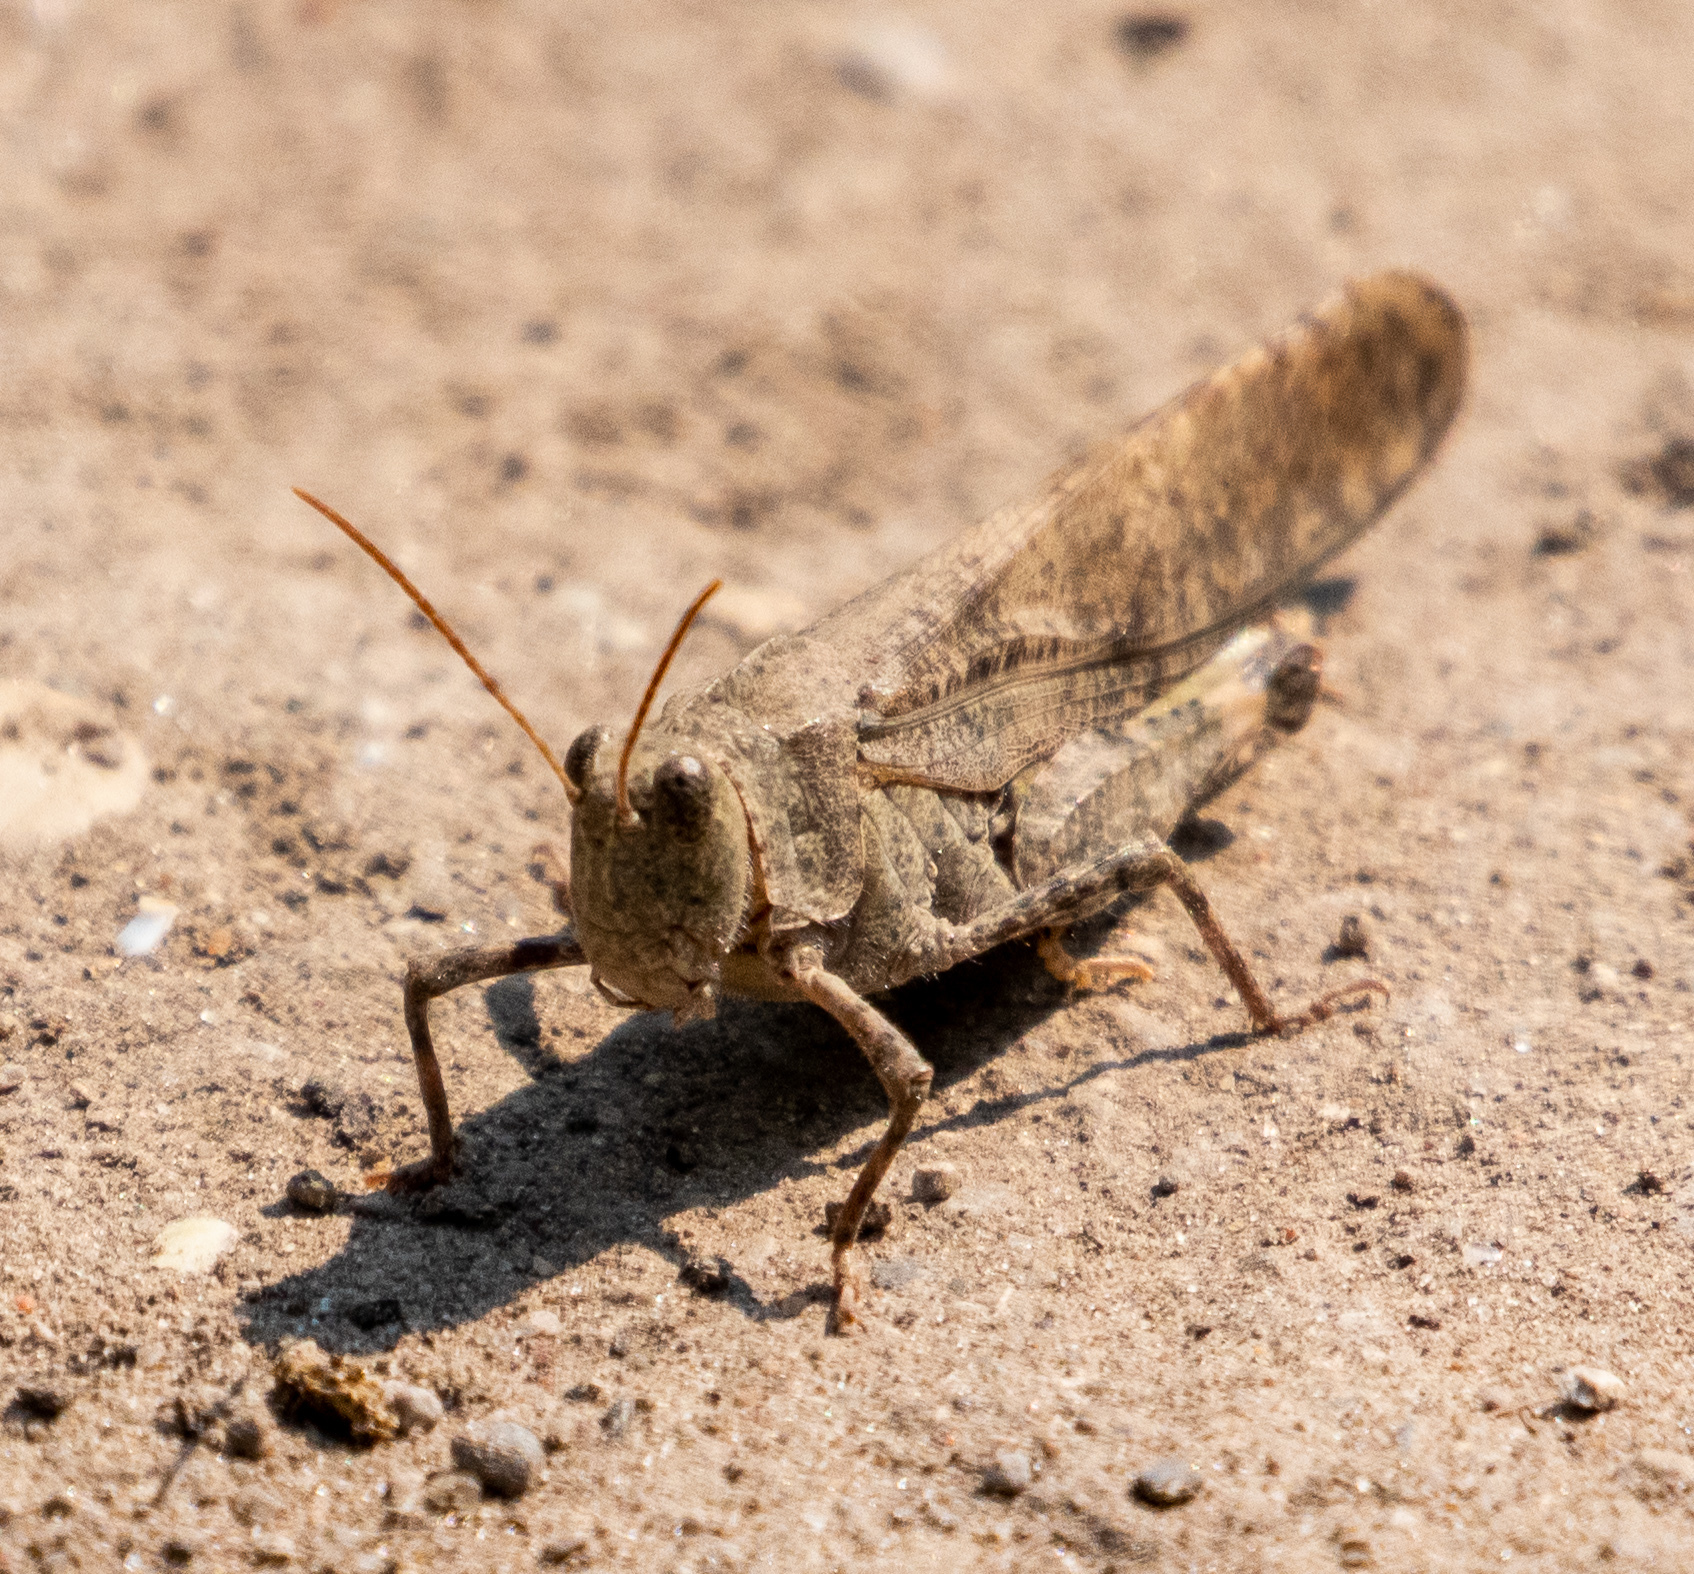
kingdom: Animalia
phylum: Arthropoda
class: Insecta
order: Orthoptera
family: Acrididae
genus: Dissosteira
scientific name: Dissosteira carolina
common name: Carolina grasshopper
